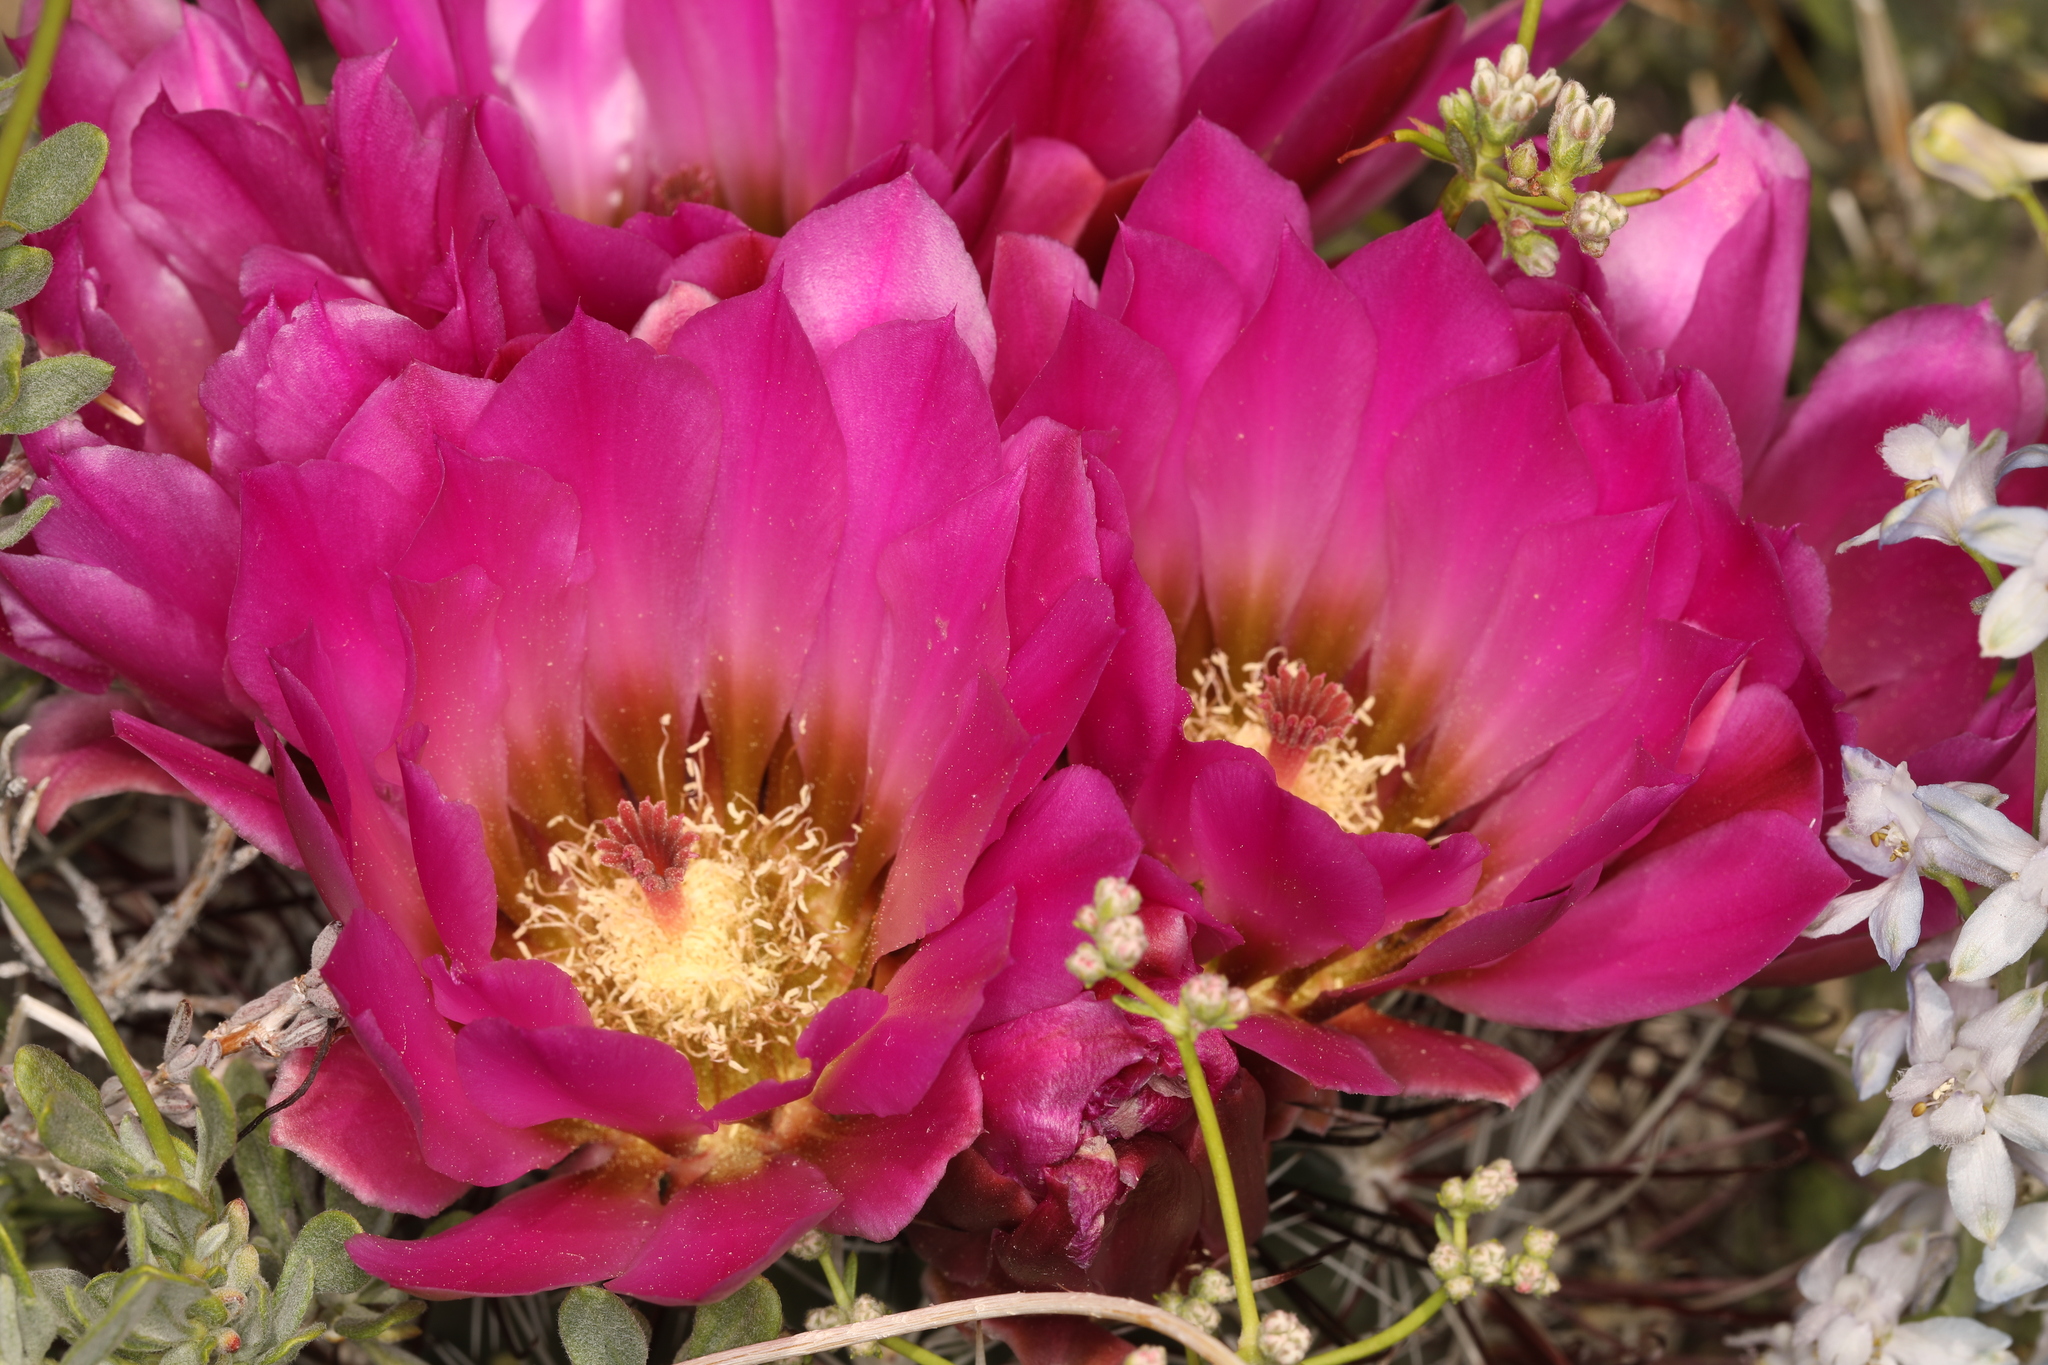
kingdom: Plantae
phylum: Tracheophyta
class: Magnoliopsida
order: Caryophyllales
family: Cactaceae
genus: Sclerocactus
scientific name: Sclerocactus polyancistrus
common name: Mohave fishhook cactus
